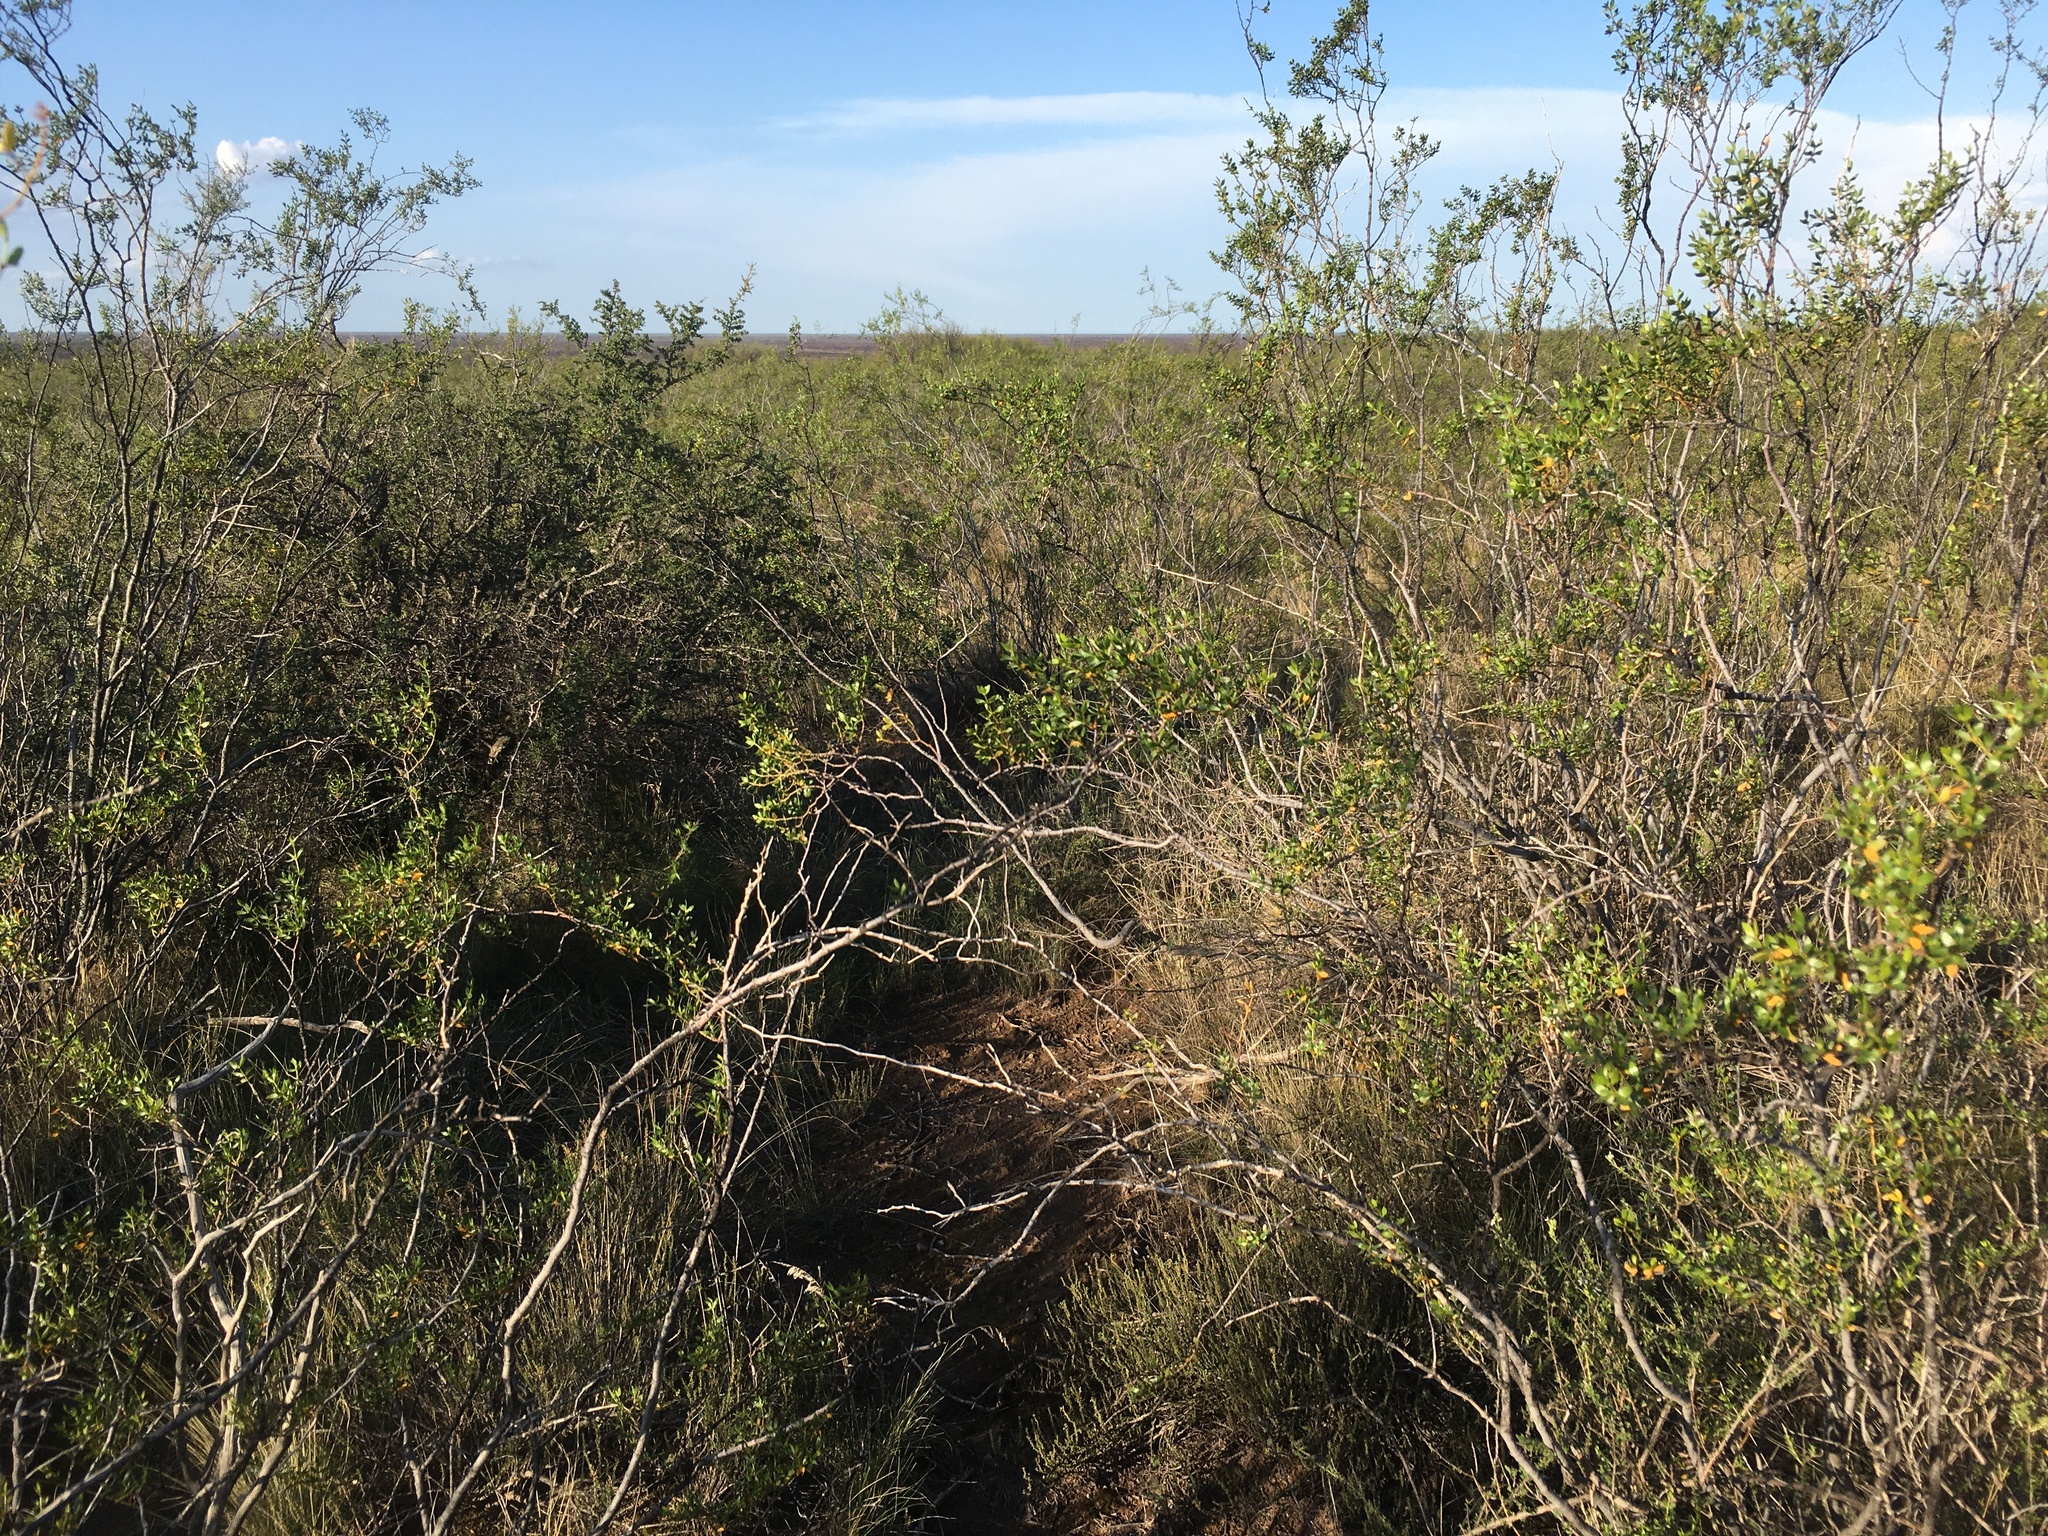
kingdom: Plantae
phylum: Tracheophyta
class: Magnoliopsida
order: Zygophyllales
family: Zygophyllaceae
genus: Larrea
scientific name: Larrea divaricata
